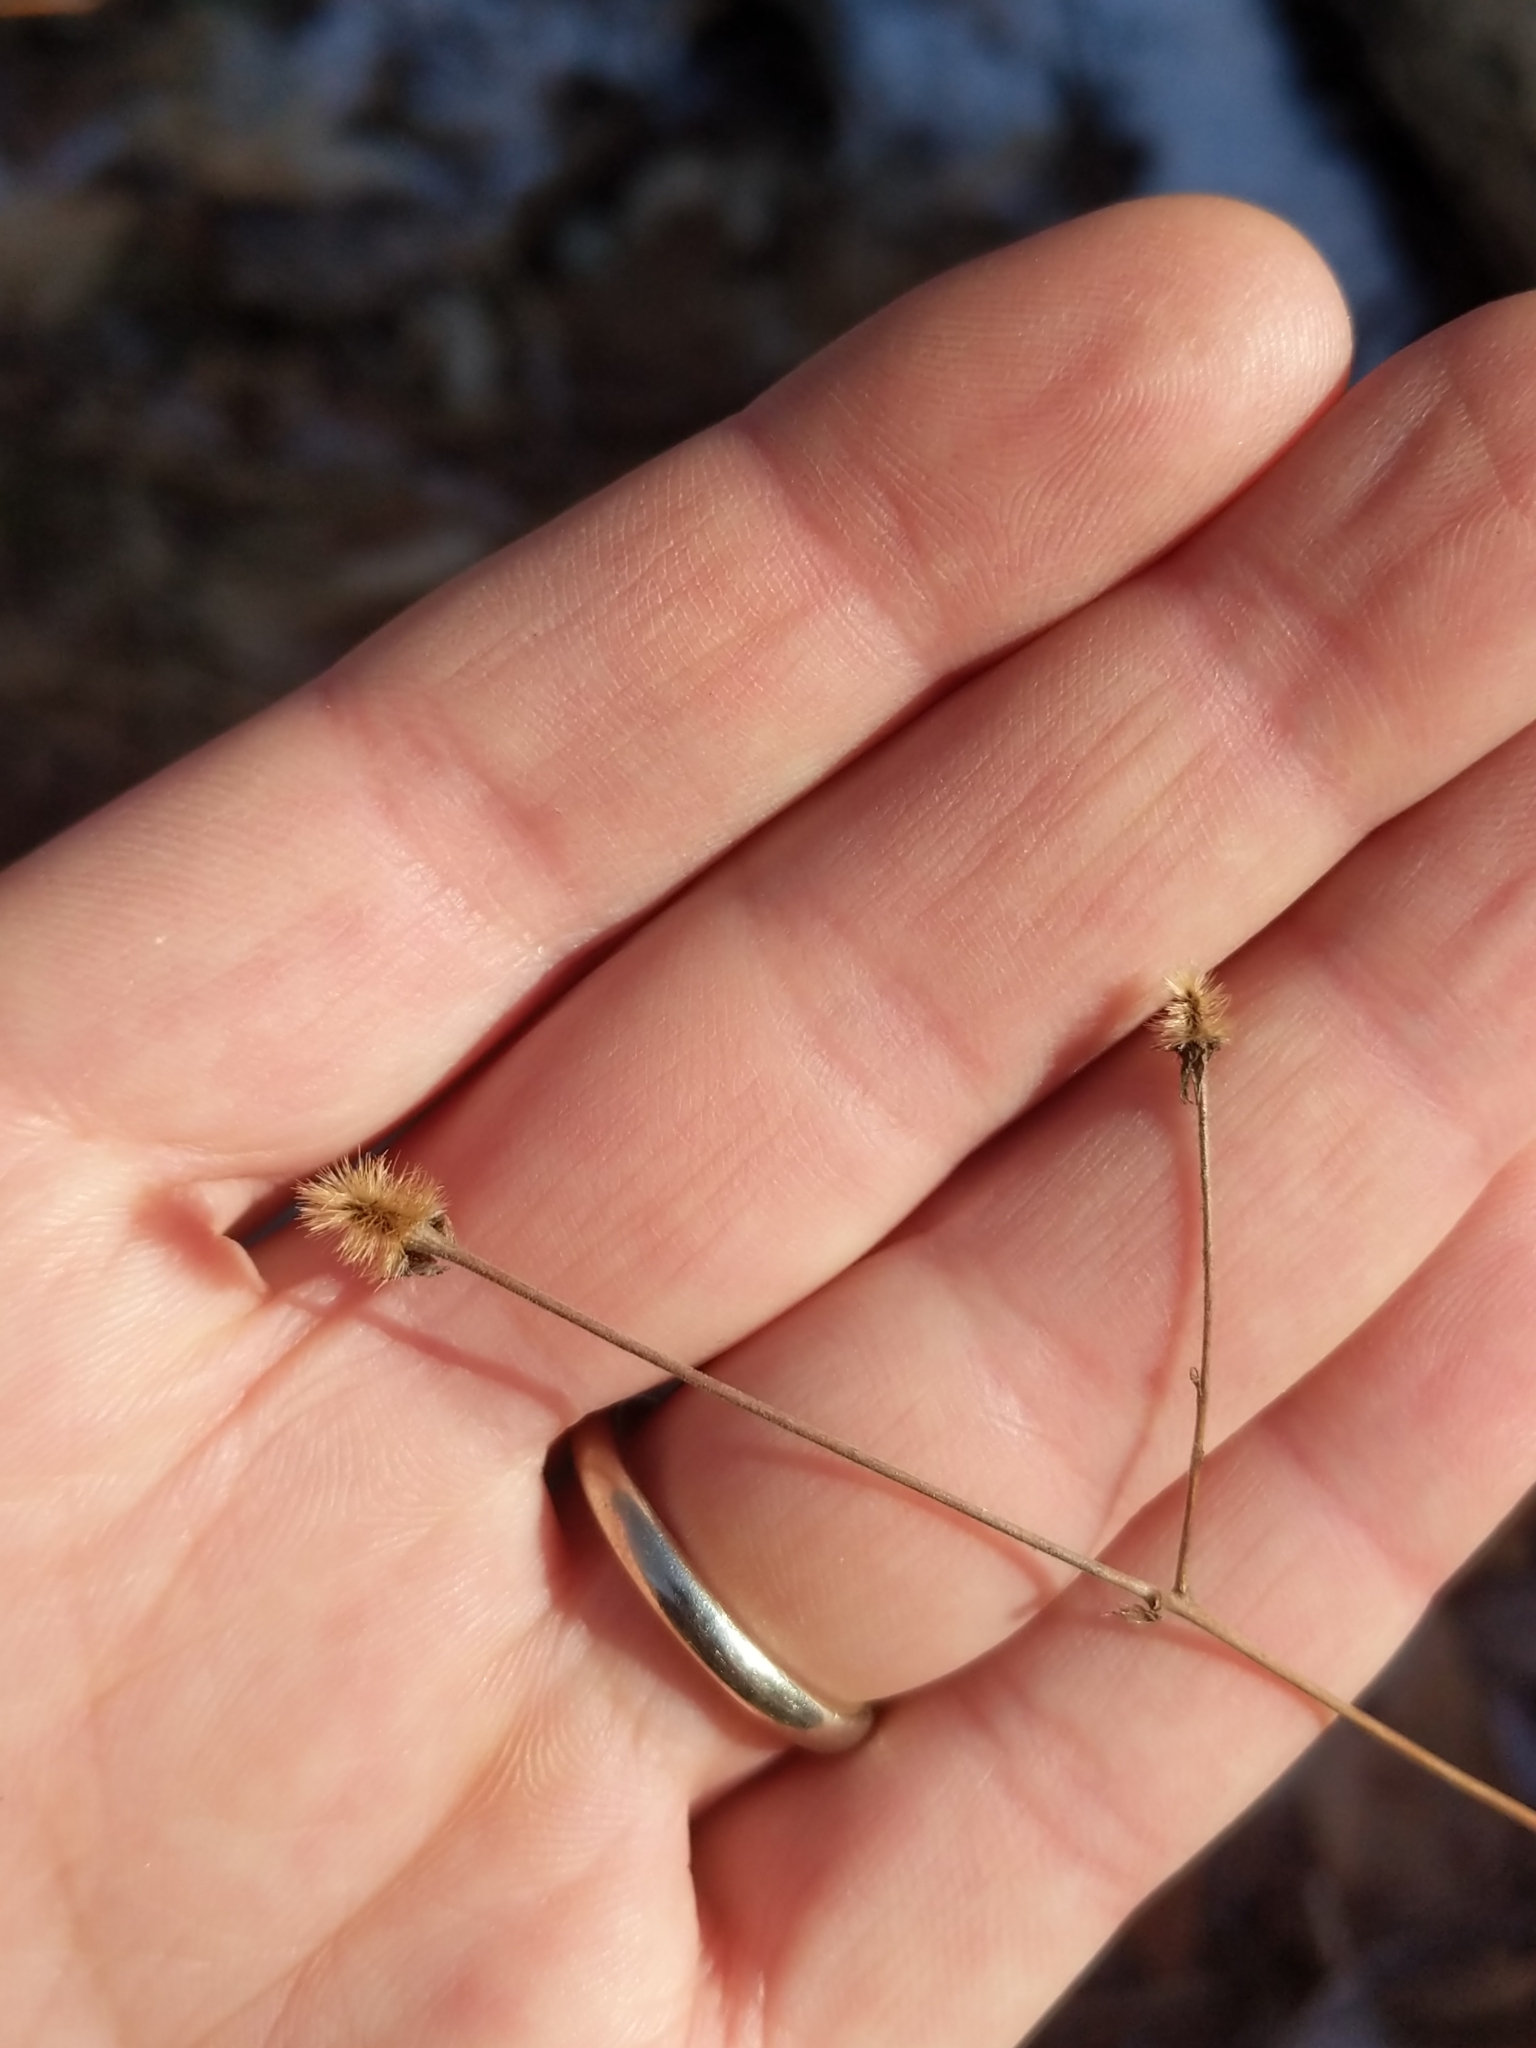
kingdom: Plantae
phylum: Tracheophyta
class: Magnoliopsida
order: Rosales
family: Rosaceae
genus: Geum
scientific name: Geum canadense
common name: White avens
